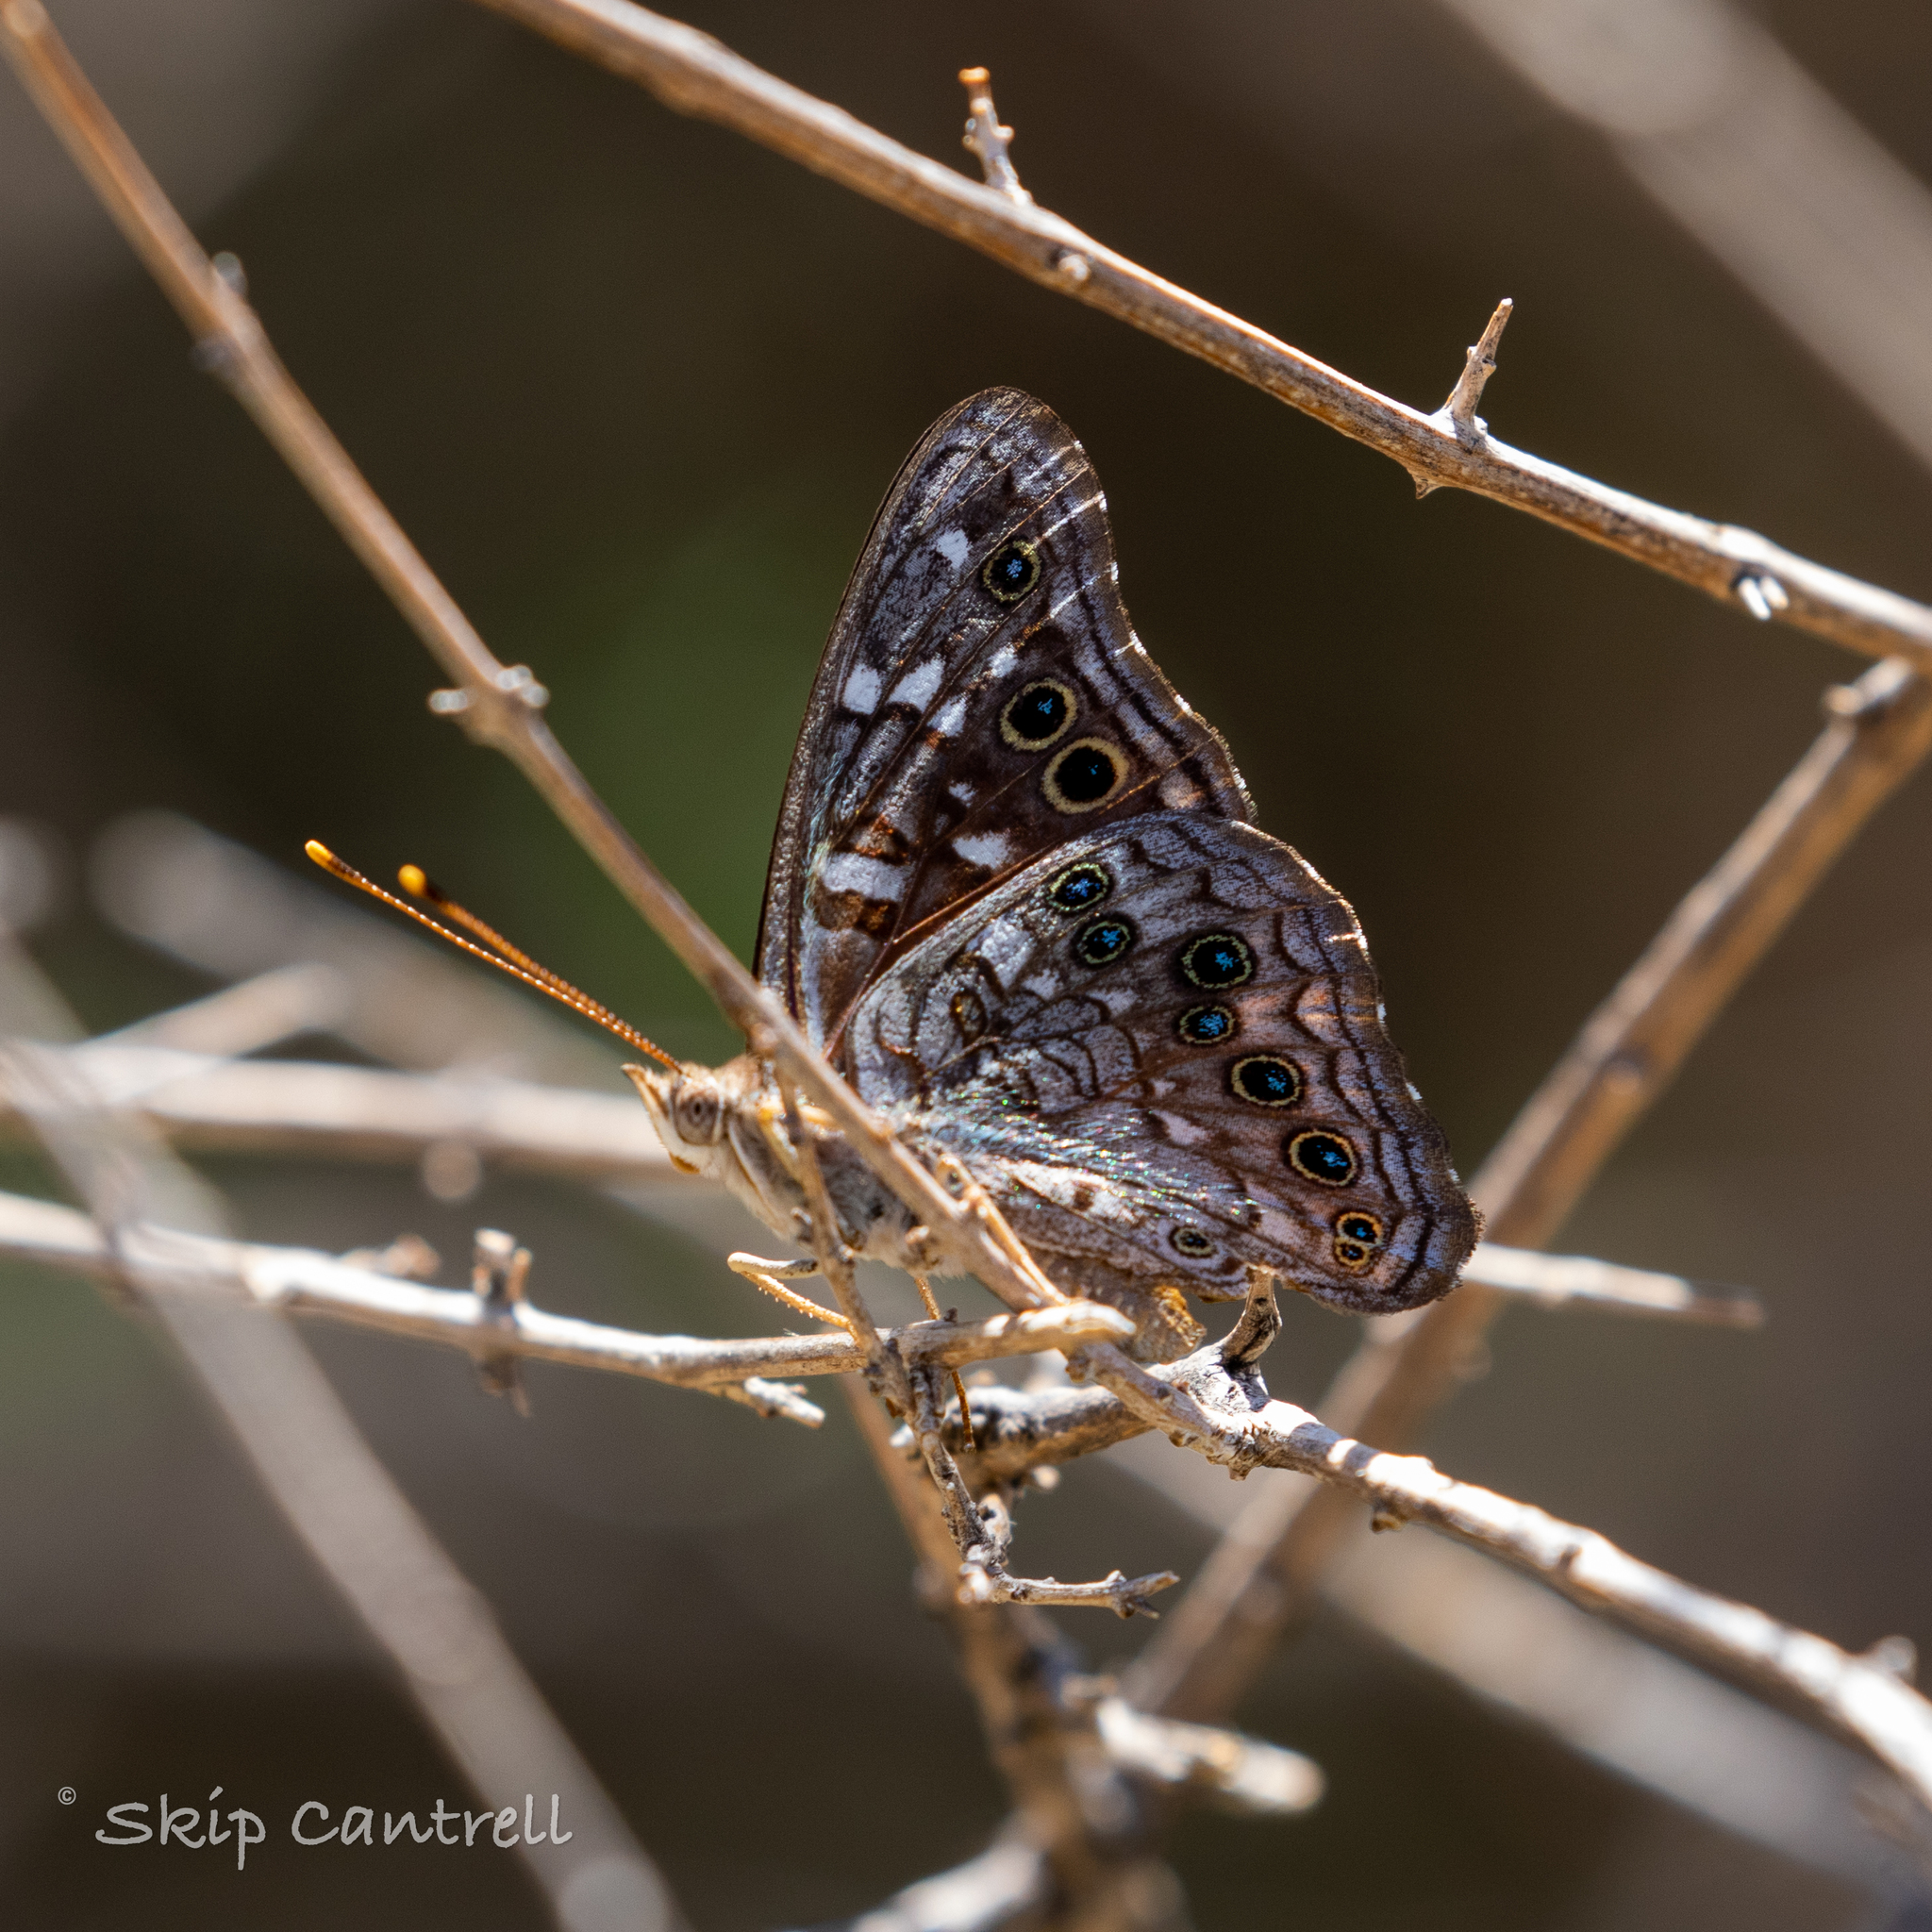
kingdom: Animalia
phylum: Arthropoda
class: Insecta
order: Lepidoptera
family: Nymphalidae
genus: Asterocampa
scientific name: Asterocampa leilia
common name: Empress leilia
